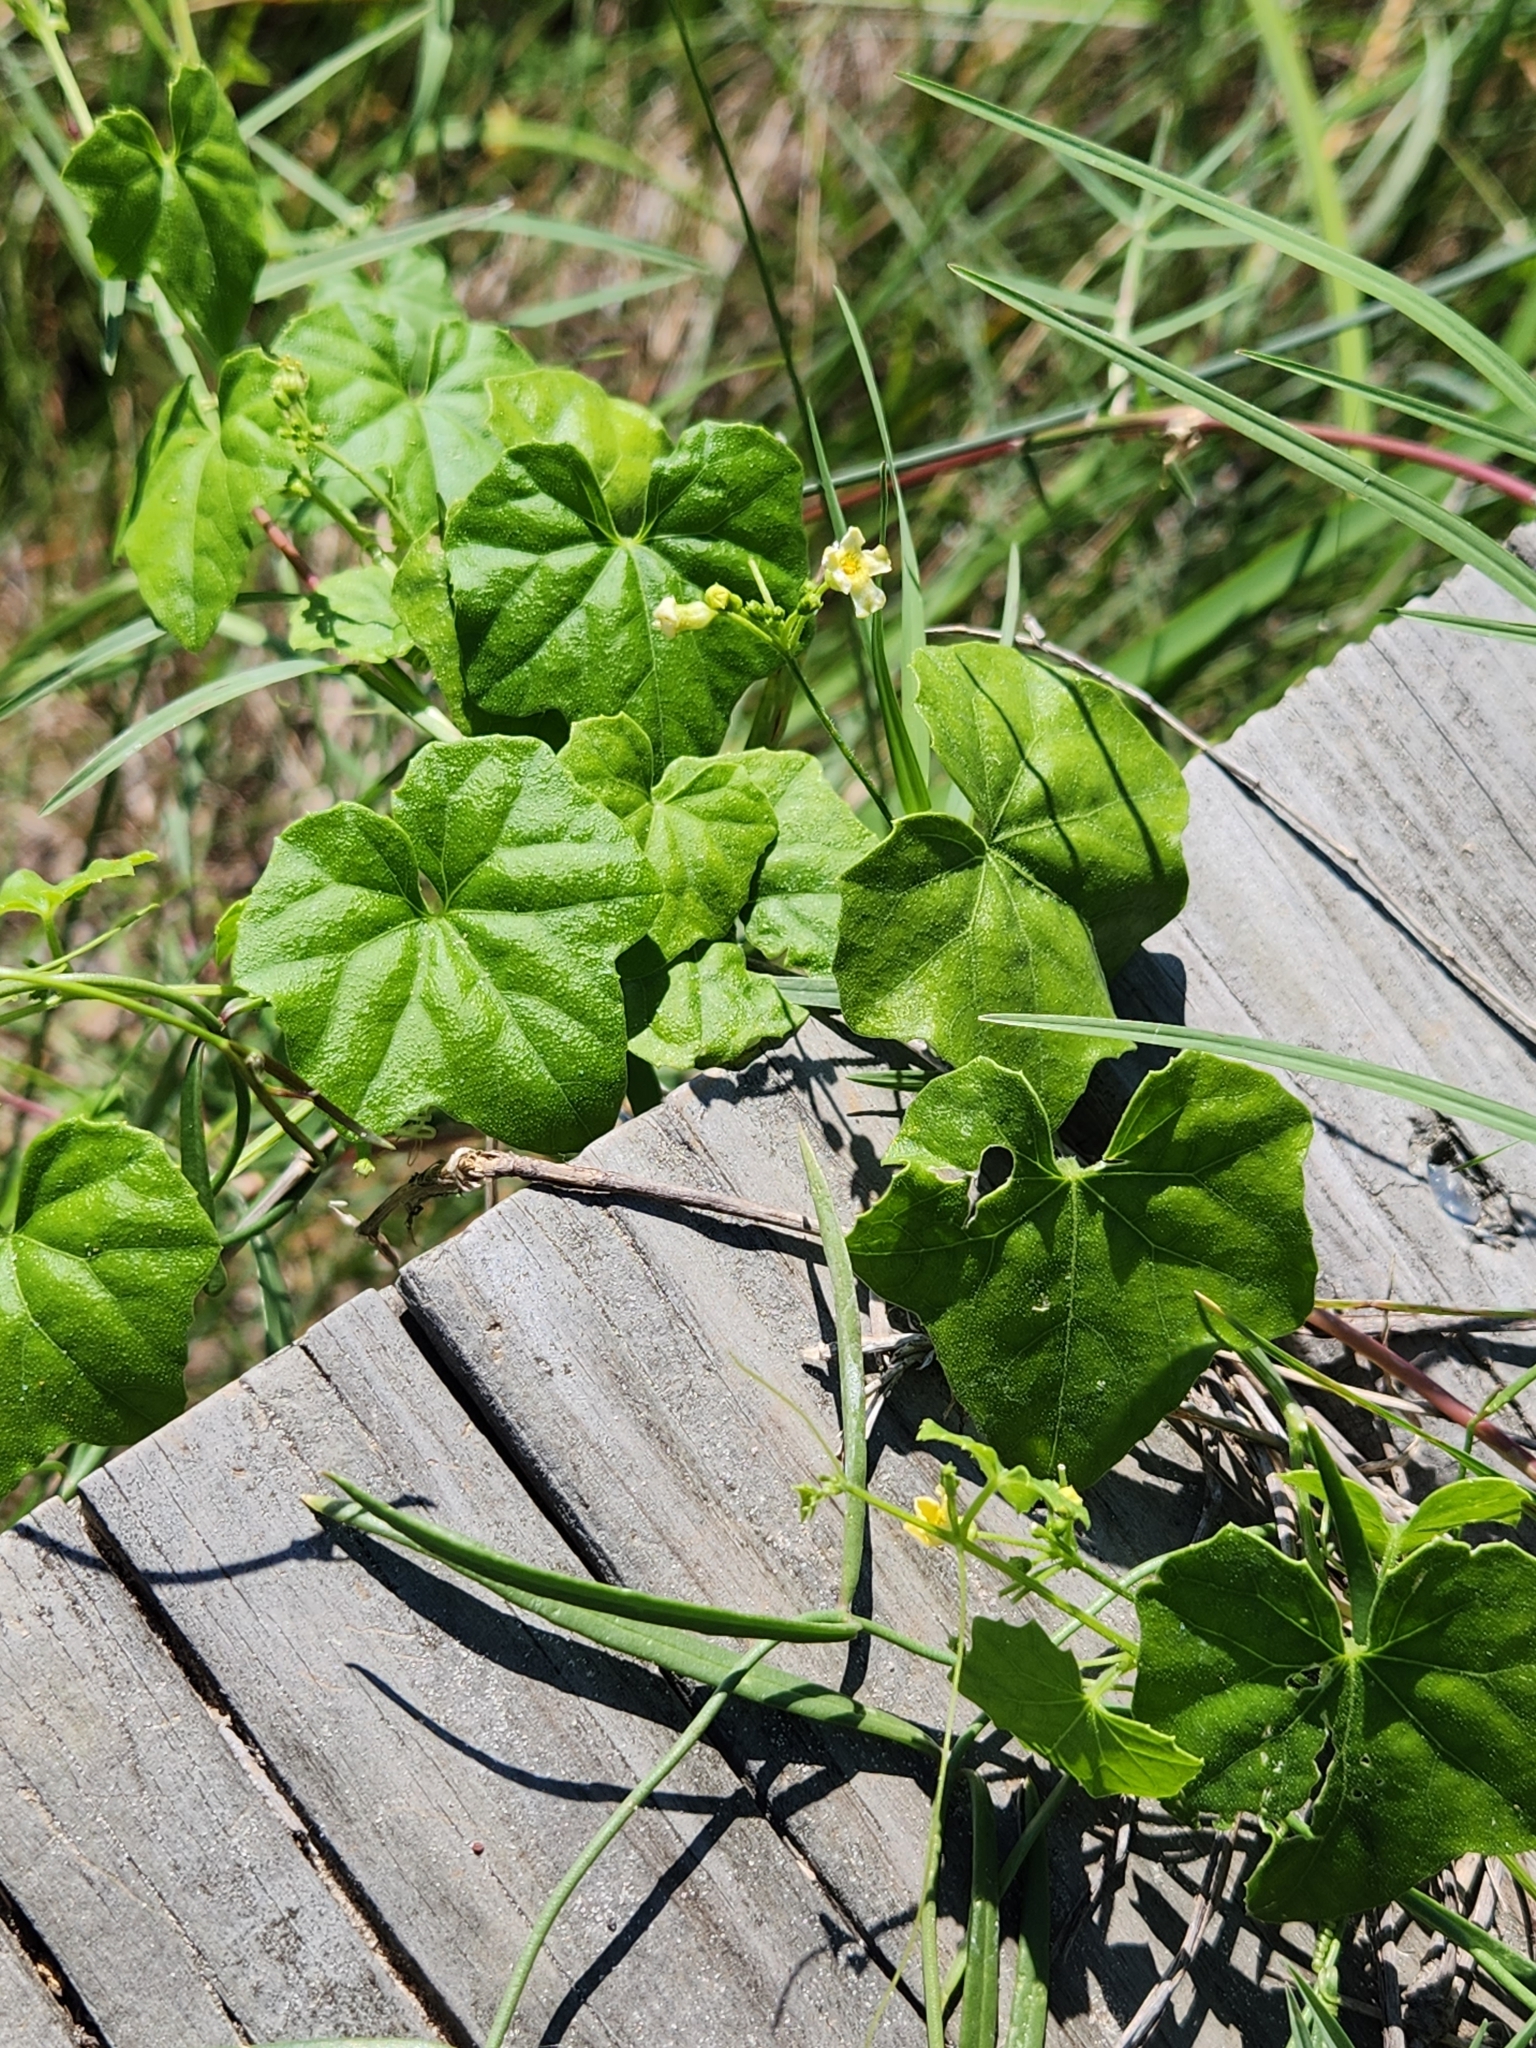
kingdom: Plantae
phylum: Tracheophyta
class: Magnoliopsida
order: Cucurbitales
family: Cucurbitaceae
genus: Melothria
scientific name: Melothria pendula
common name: Creeping-cucumber
